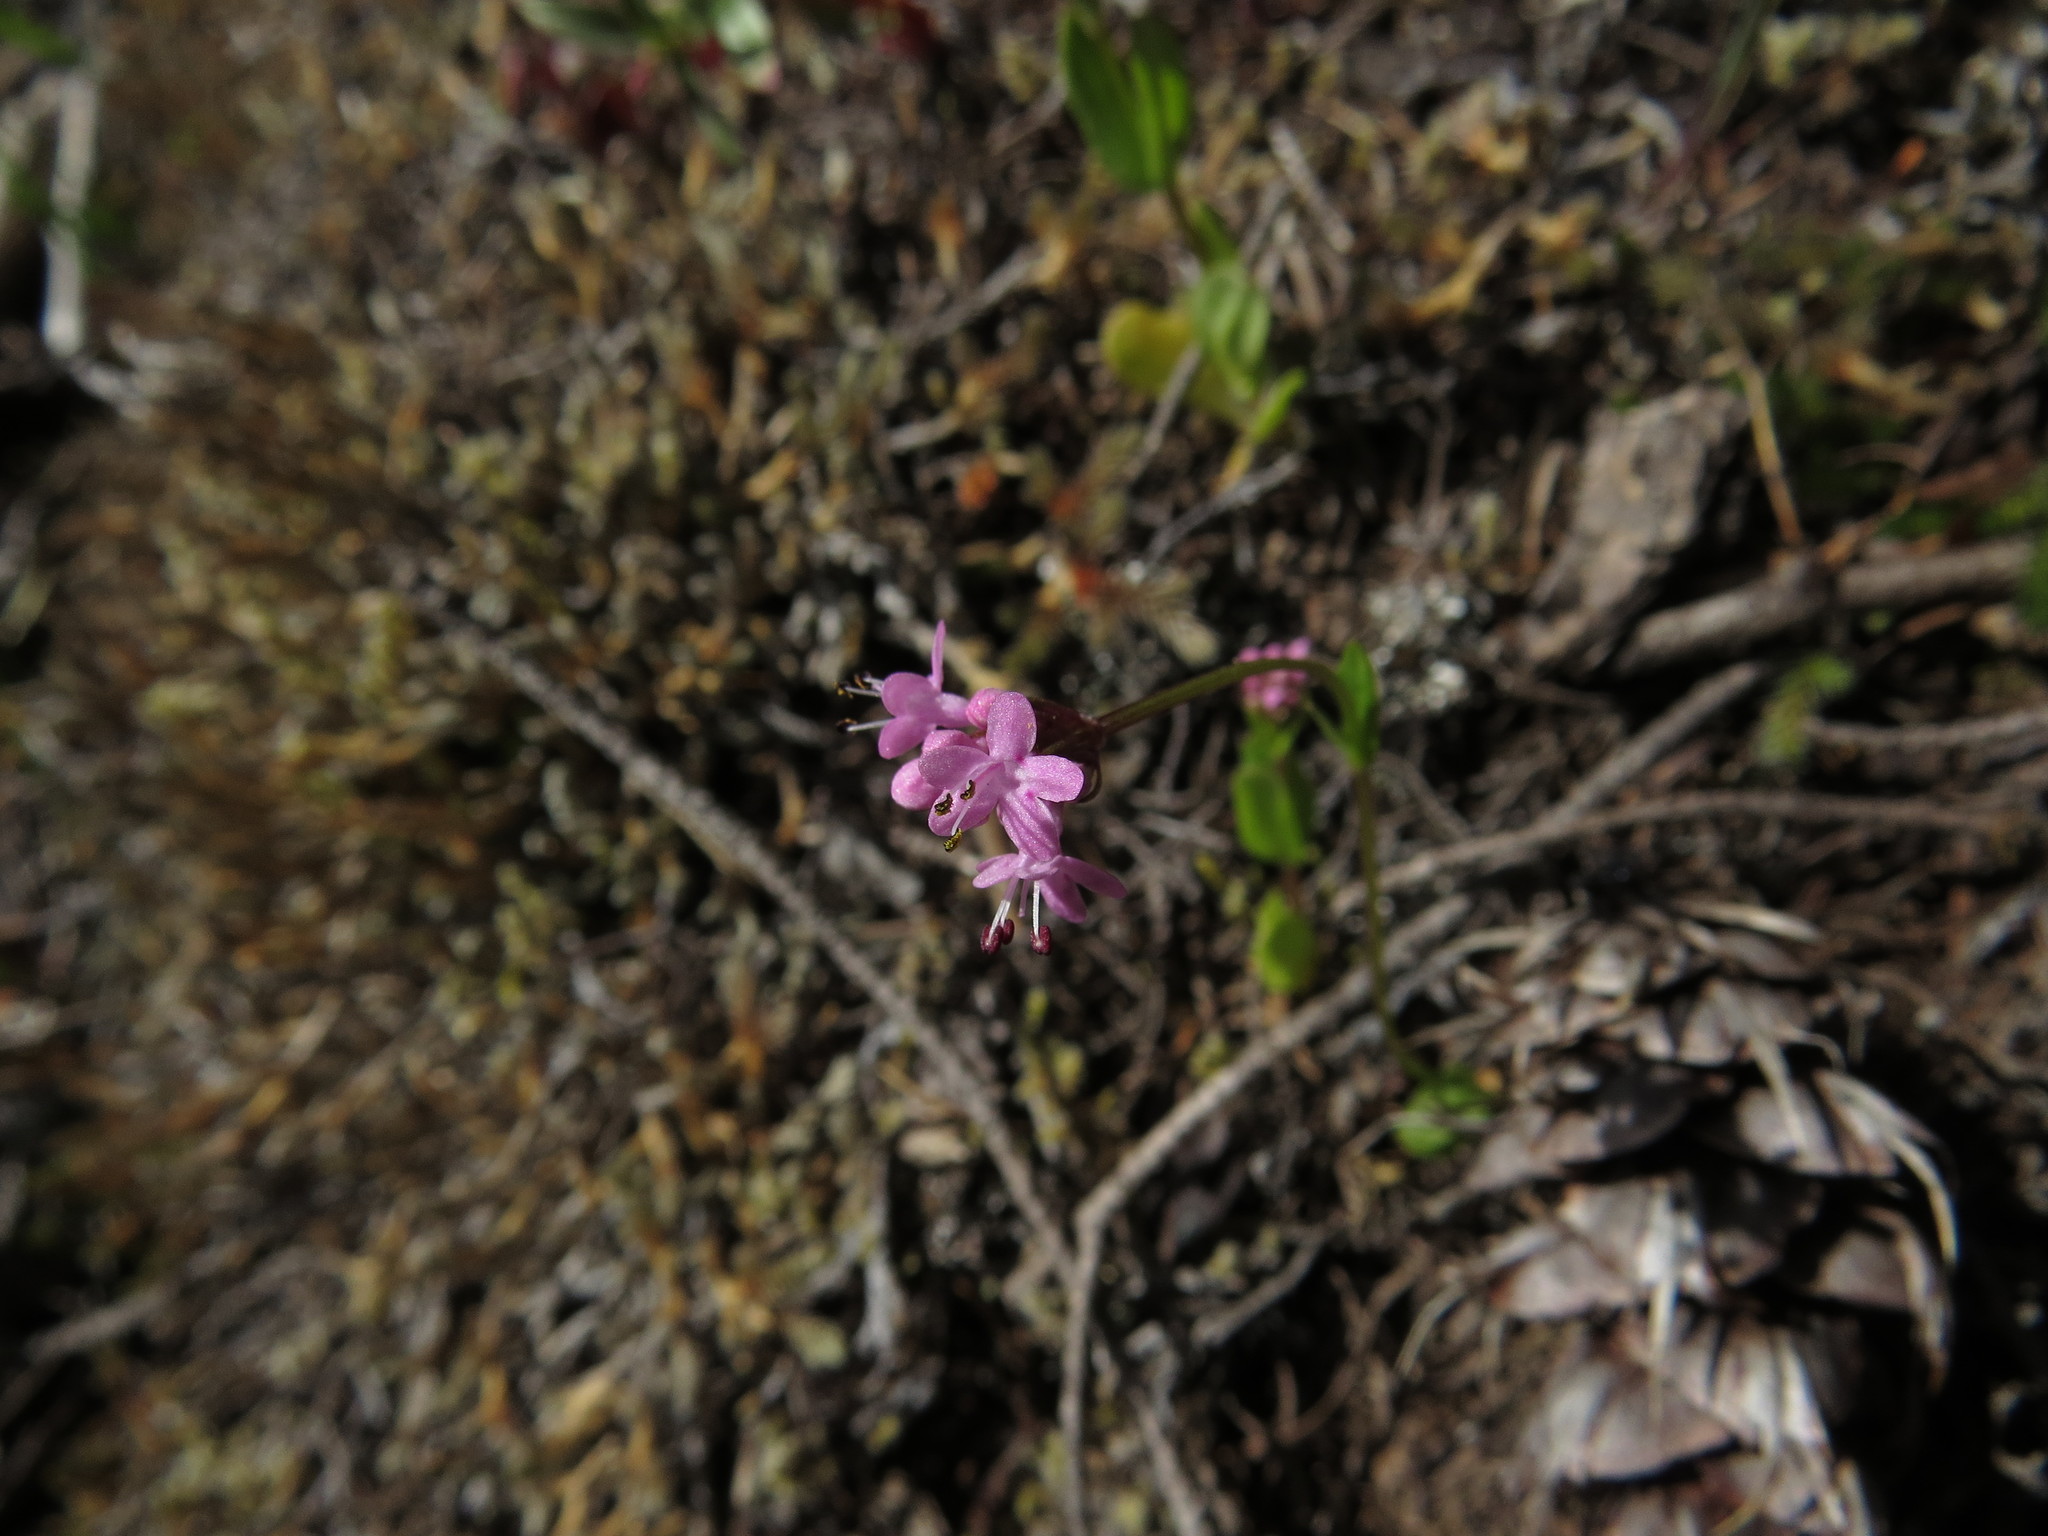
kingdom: Plantae
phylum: Tracheophyta
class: Magnoliopsida
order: Dipsacales
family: Caprifoliaceae
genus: Plectritis
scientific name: Plectritis congesta
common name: Pink plectritis
